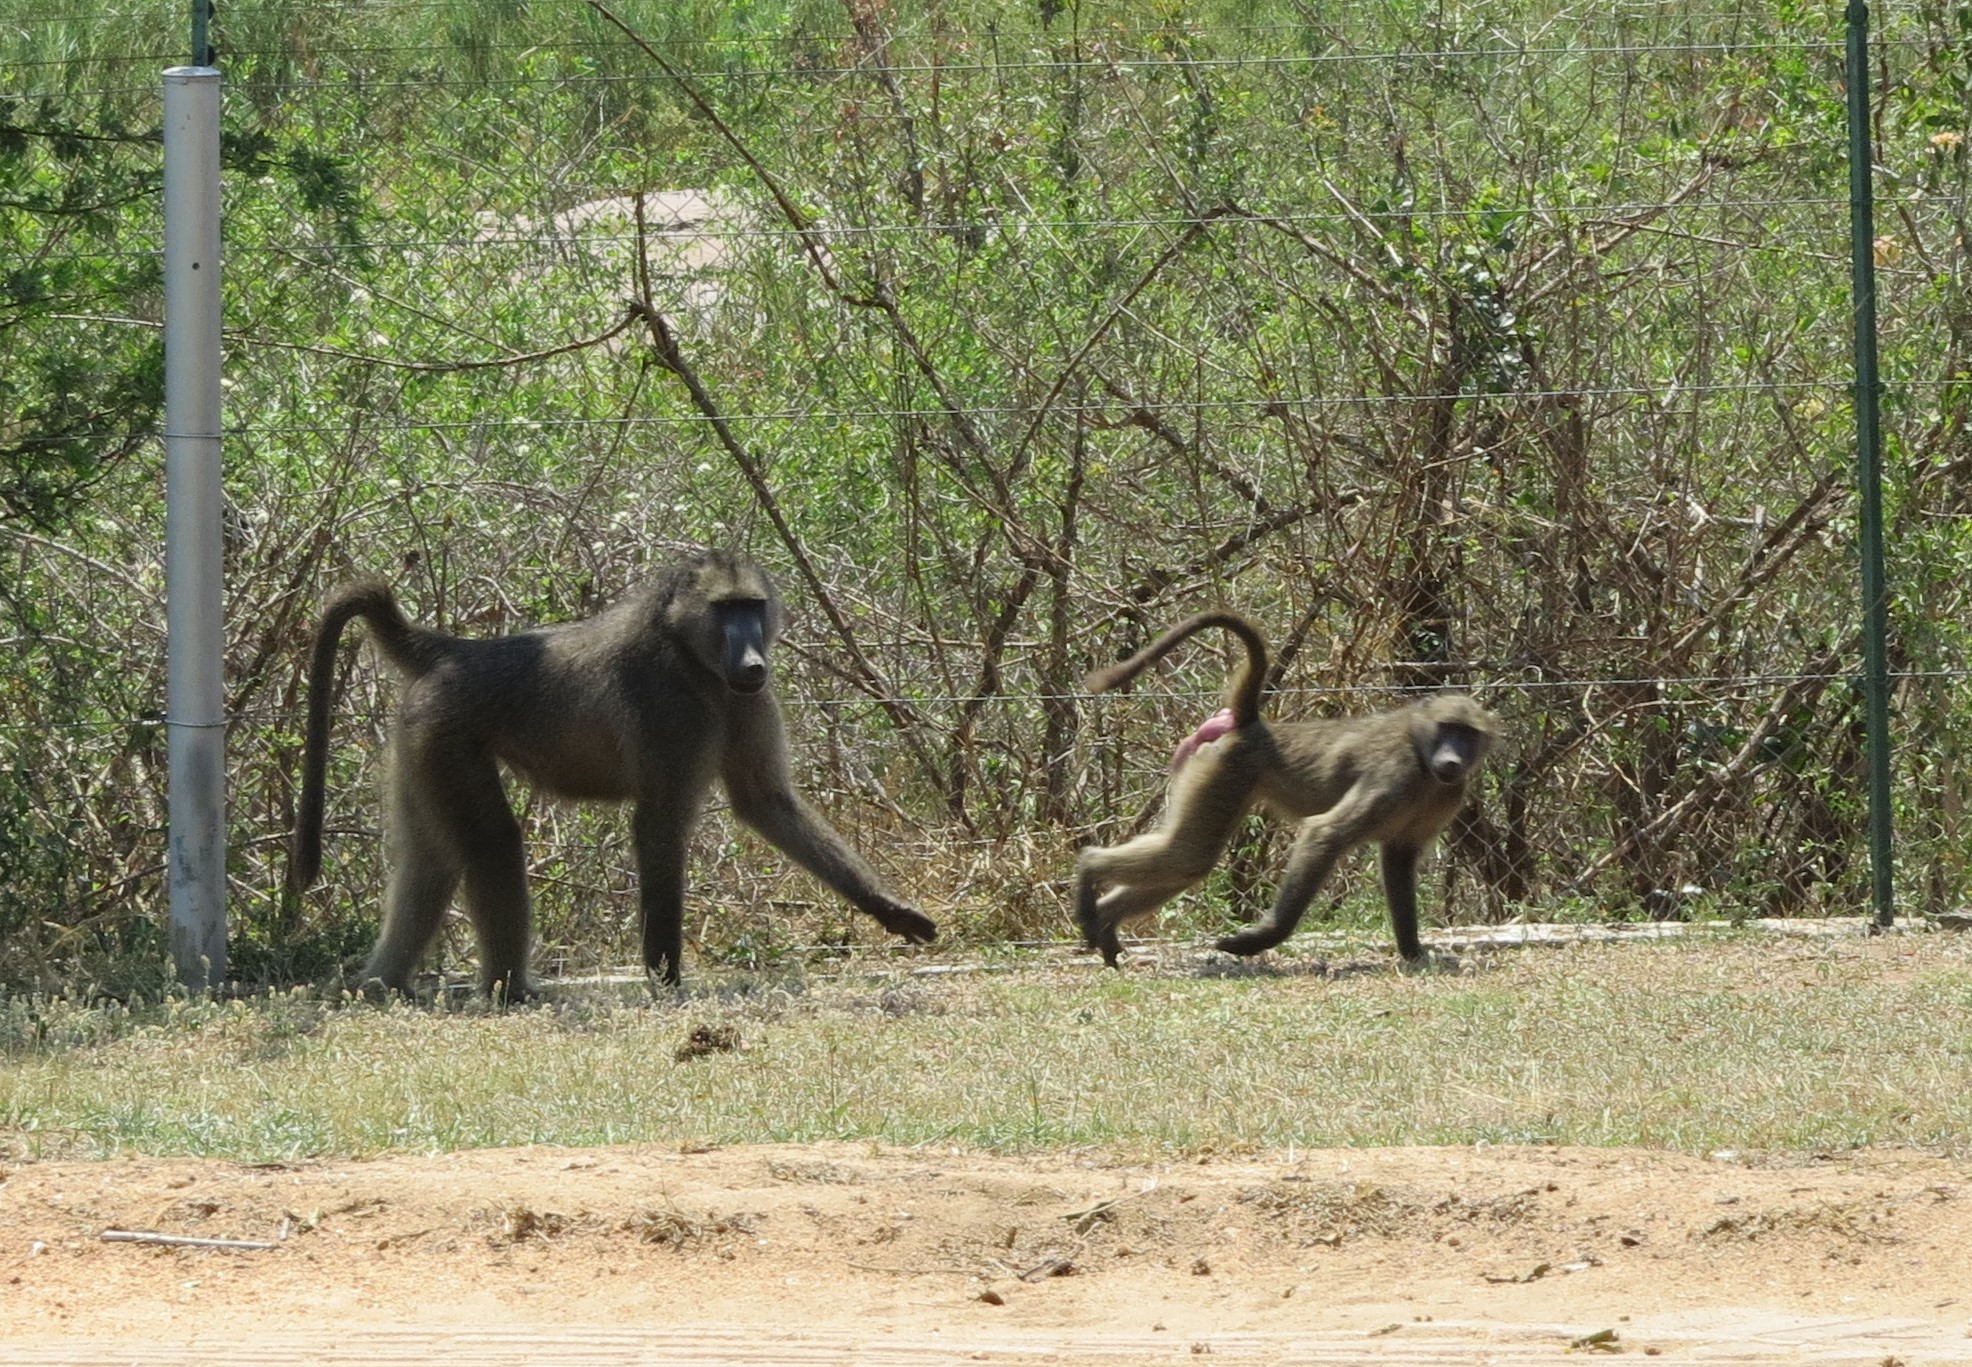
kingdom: Animalia
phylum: Chordata
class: Mammalia
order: Primates
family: Cercopithecidae
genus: Papio
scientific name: Papio ursinus
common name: Chacma baboon
